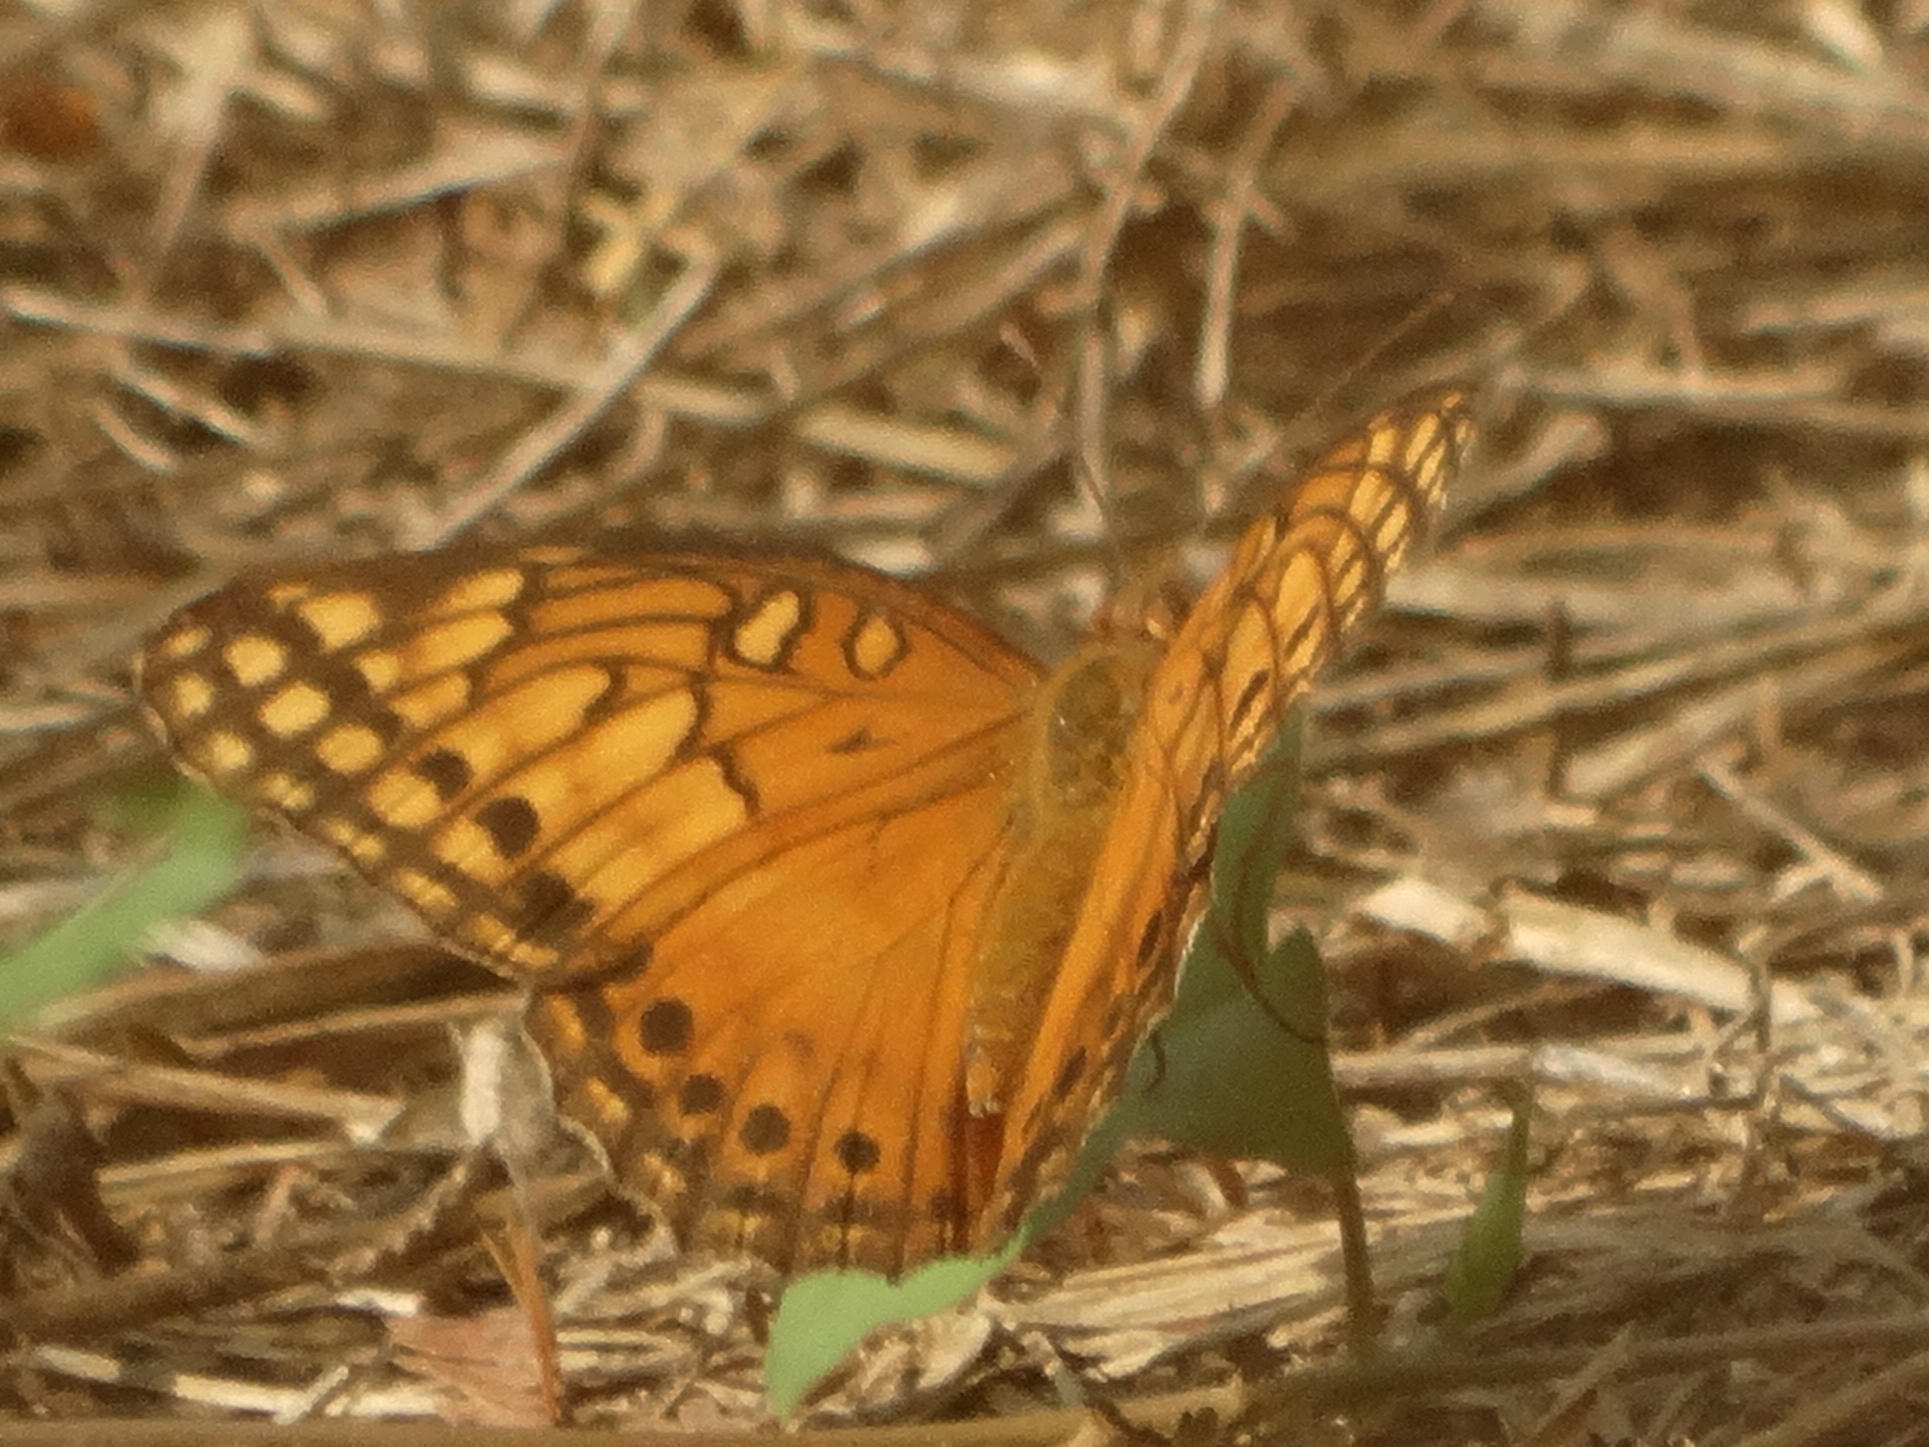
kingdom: Animalia
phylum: Arthropoda
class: Insecta
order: Lepidoptera
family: Nymphalidae
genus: Euptoieta
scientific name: Euptoieta hegesia
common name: Mexican fritillary
